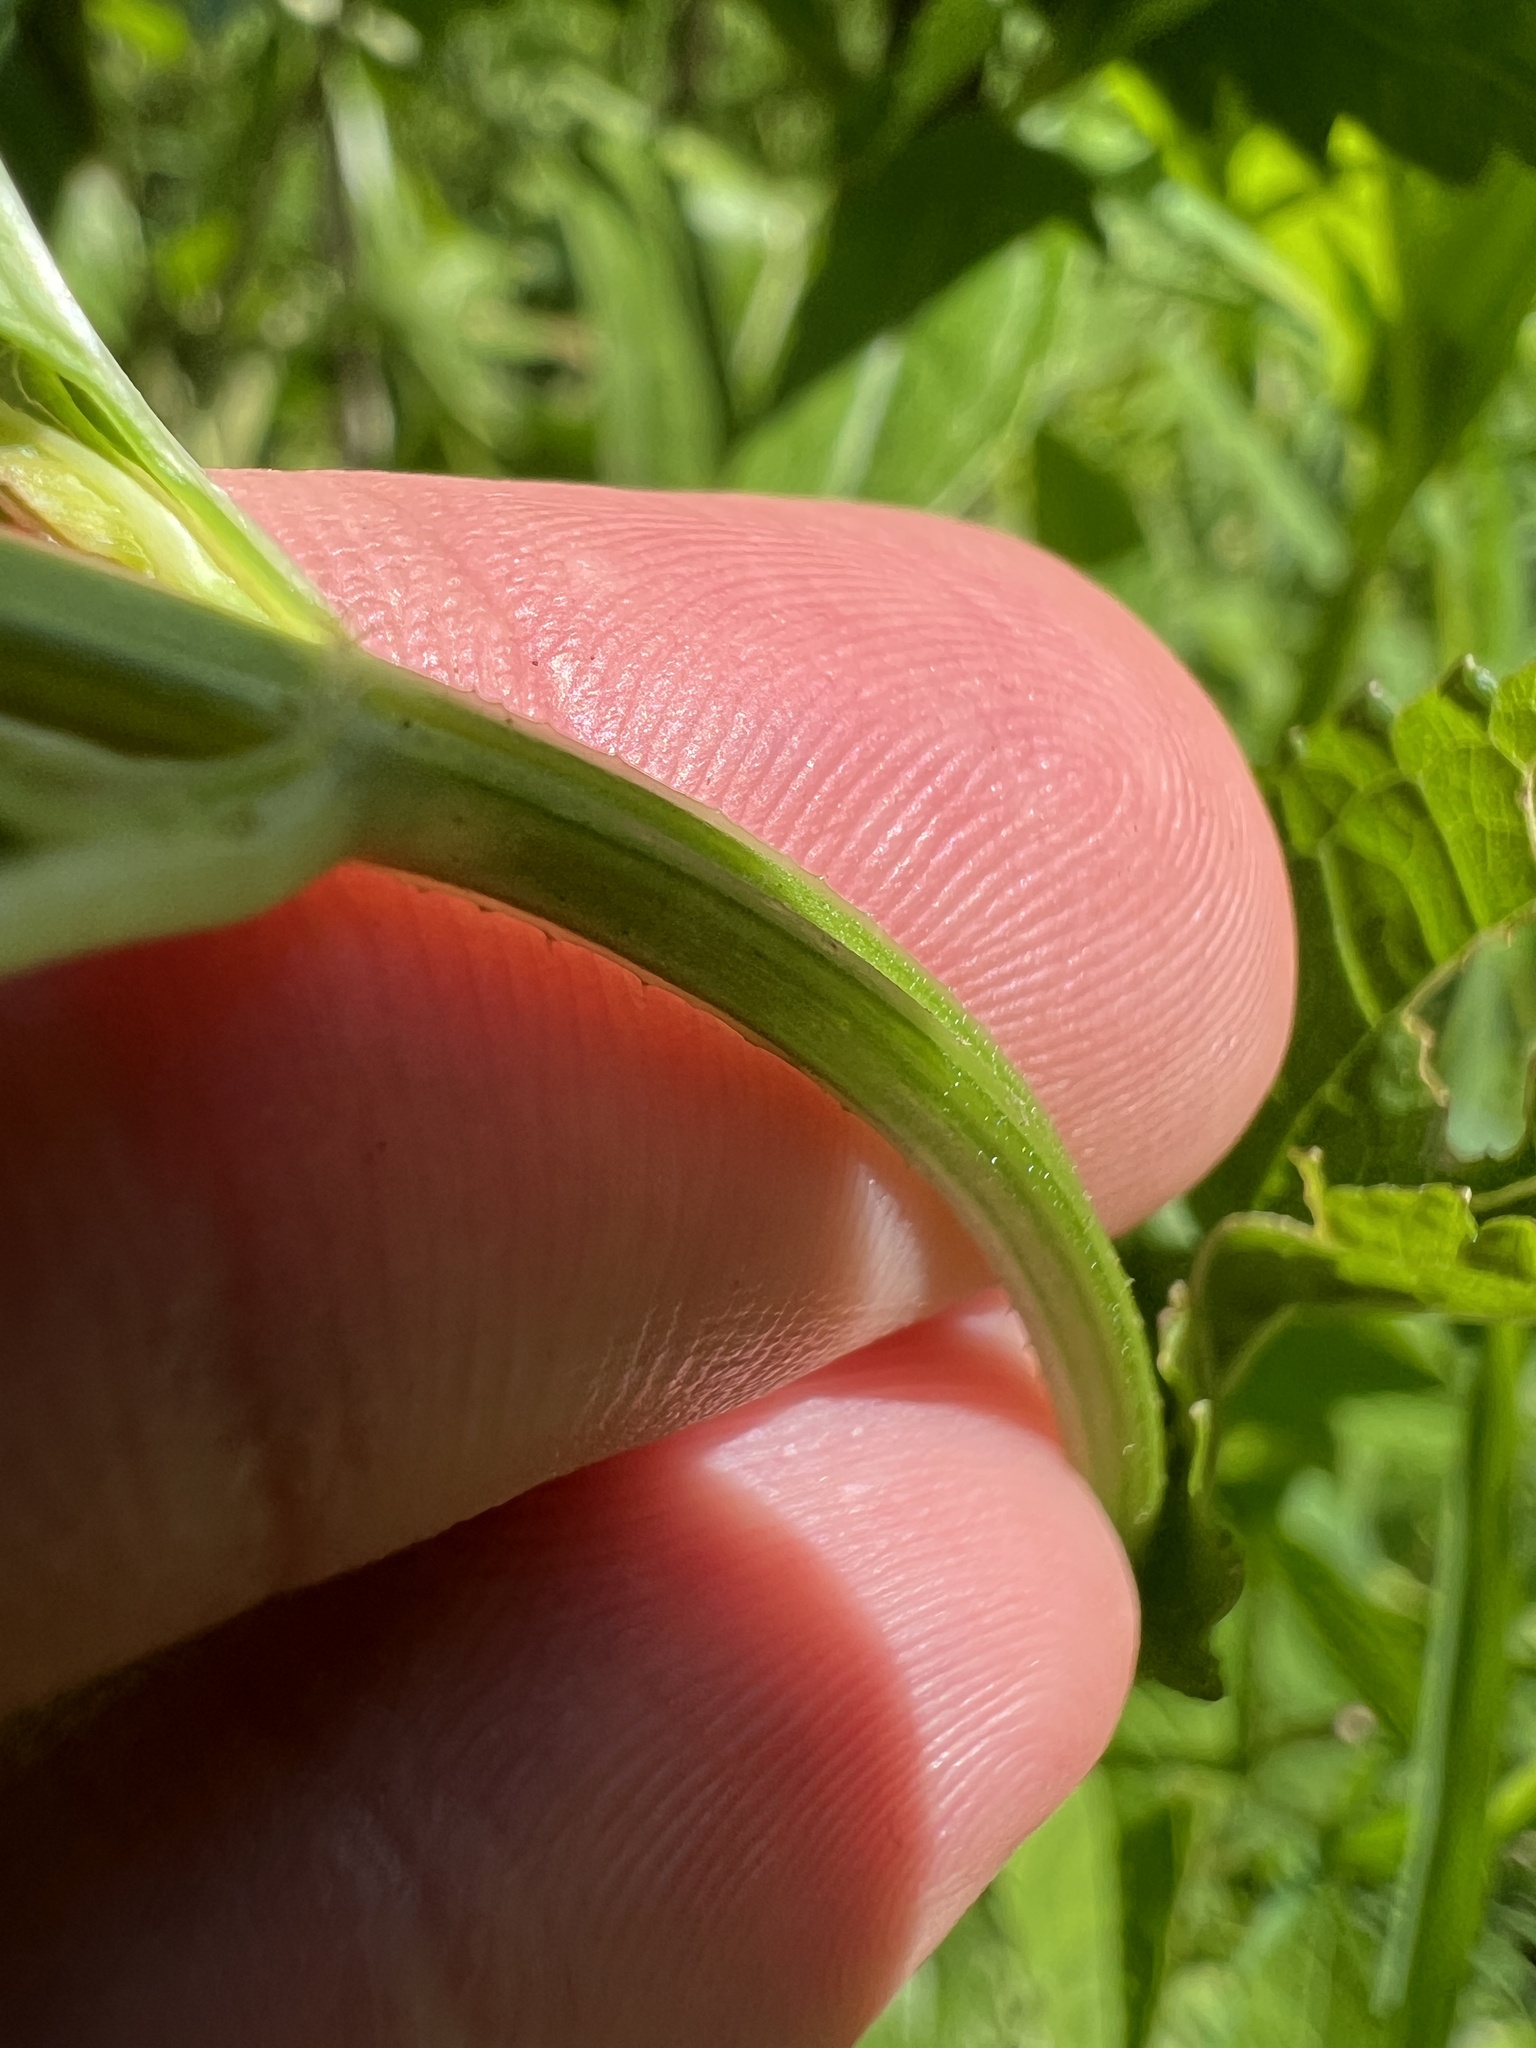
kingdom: Plantae
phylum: Tracheophyta
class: Magnoliopsida
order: Lamiales
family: Lamiaceae
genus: Stachys
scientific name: Stachys tenuifolia
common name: Smooth hedge-nettle
